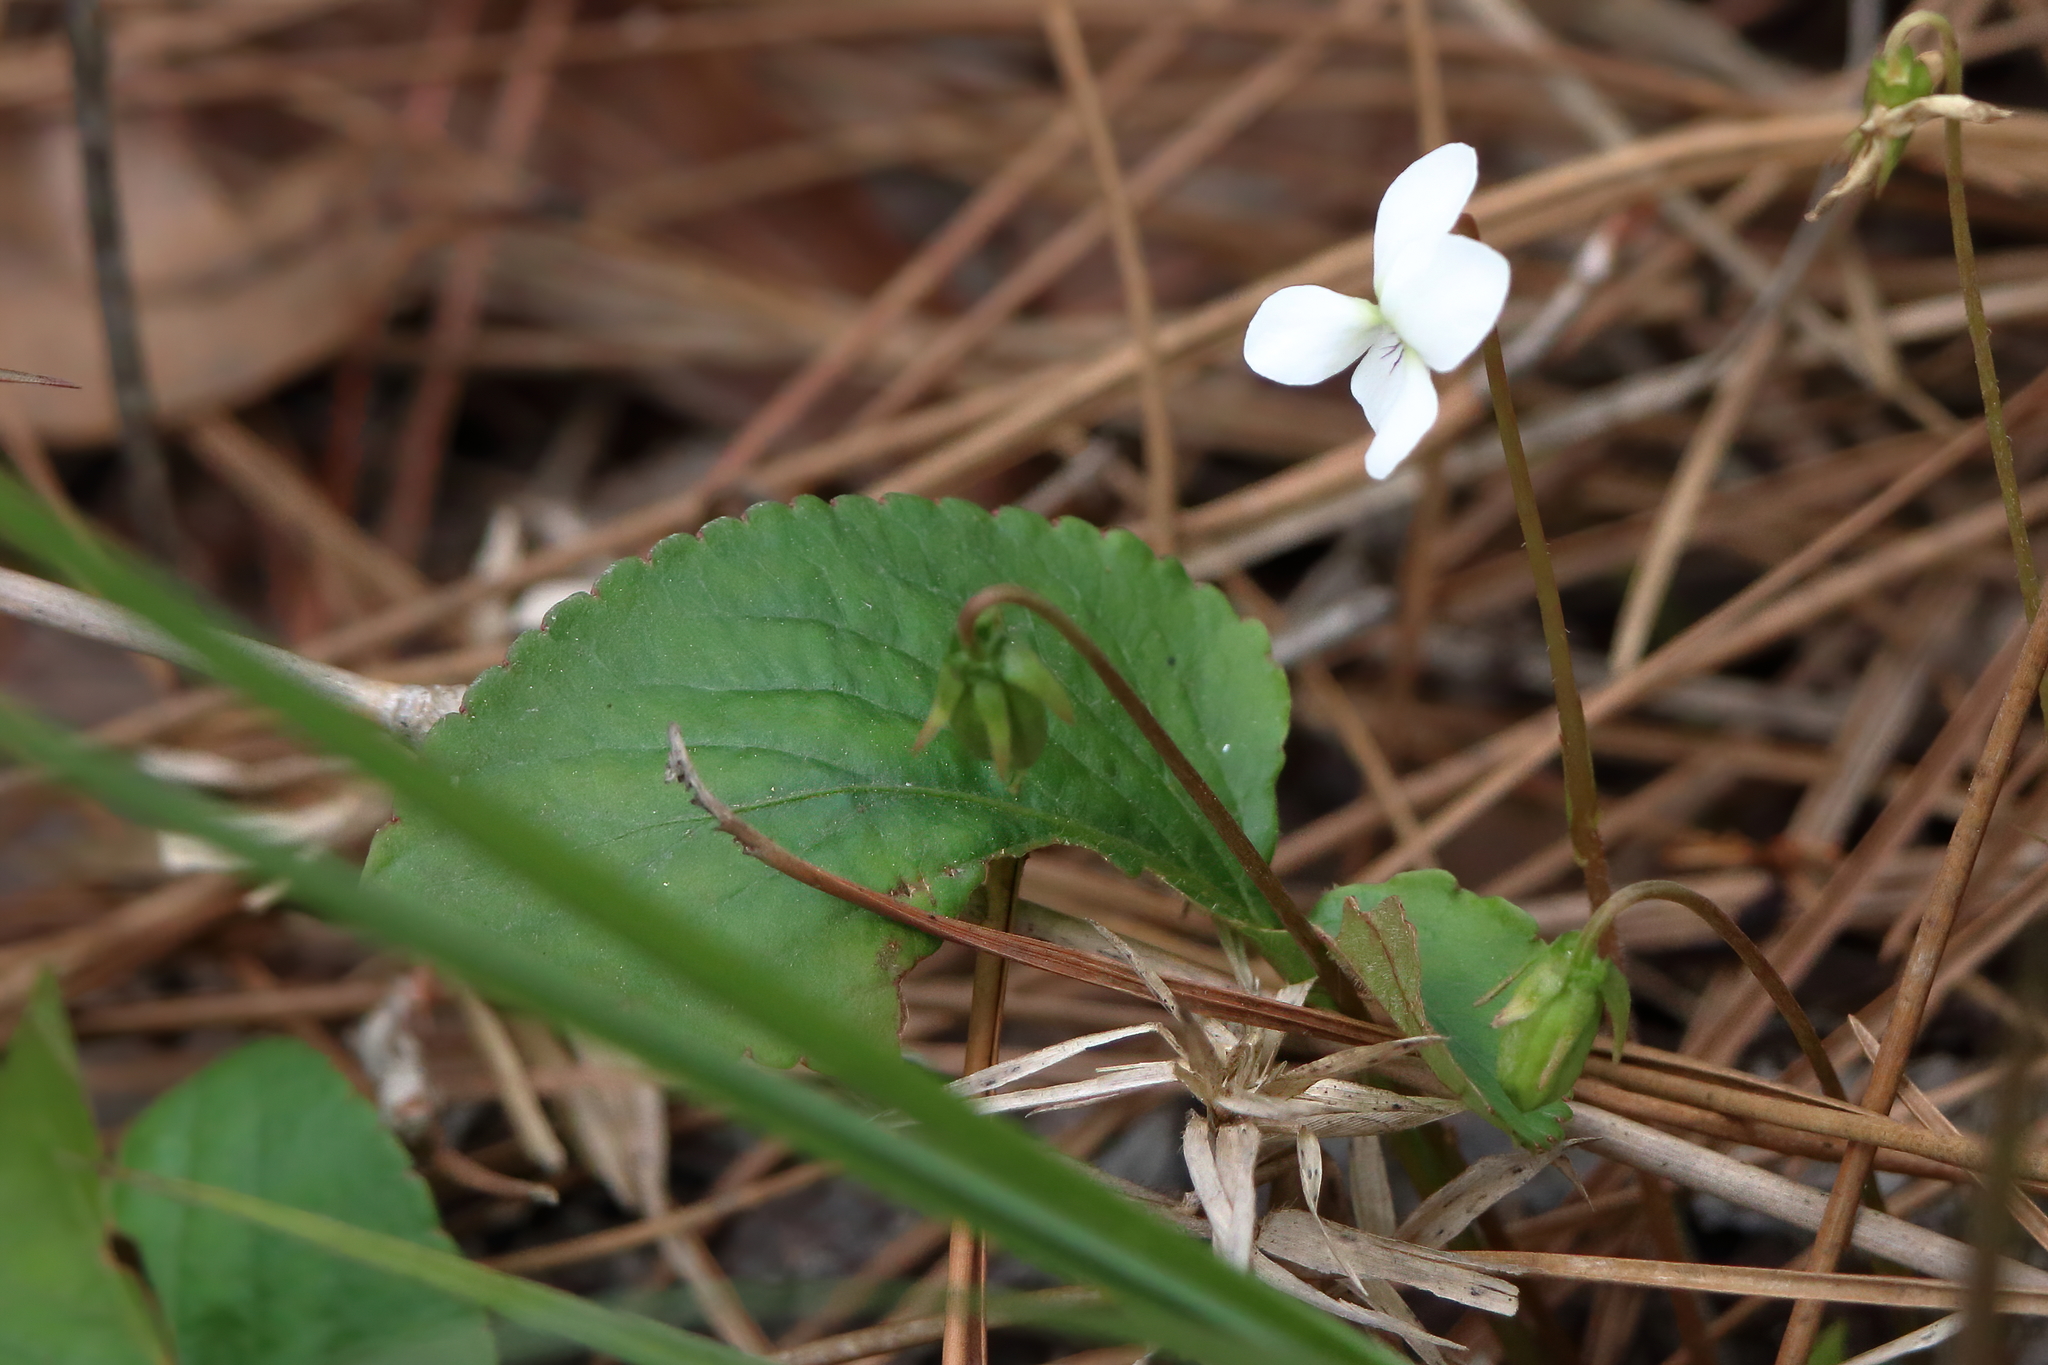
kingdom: Plantae
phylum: Tracheophyta
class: Magnoliopsida
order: Malpighiales
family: Violaceae
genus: Viola
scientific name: Viola primulifolia
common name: Primrose-leaf violet
